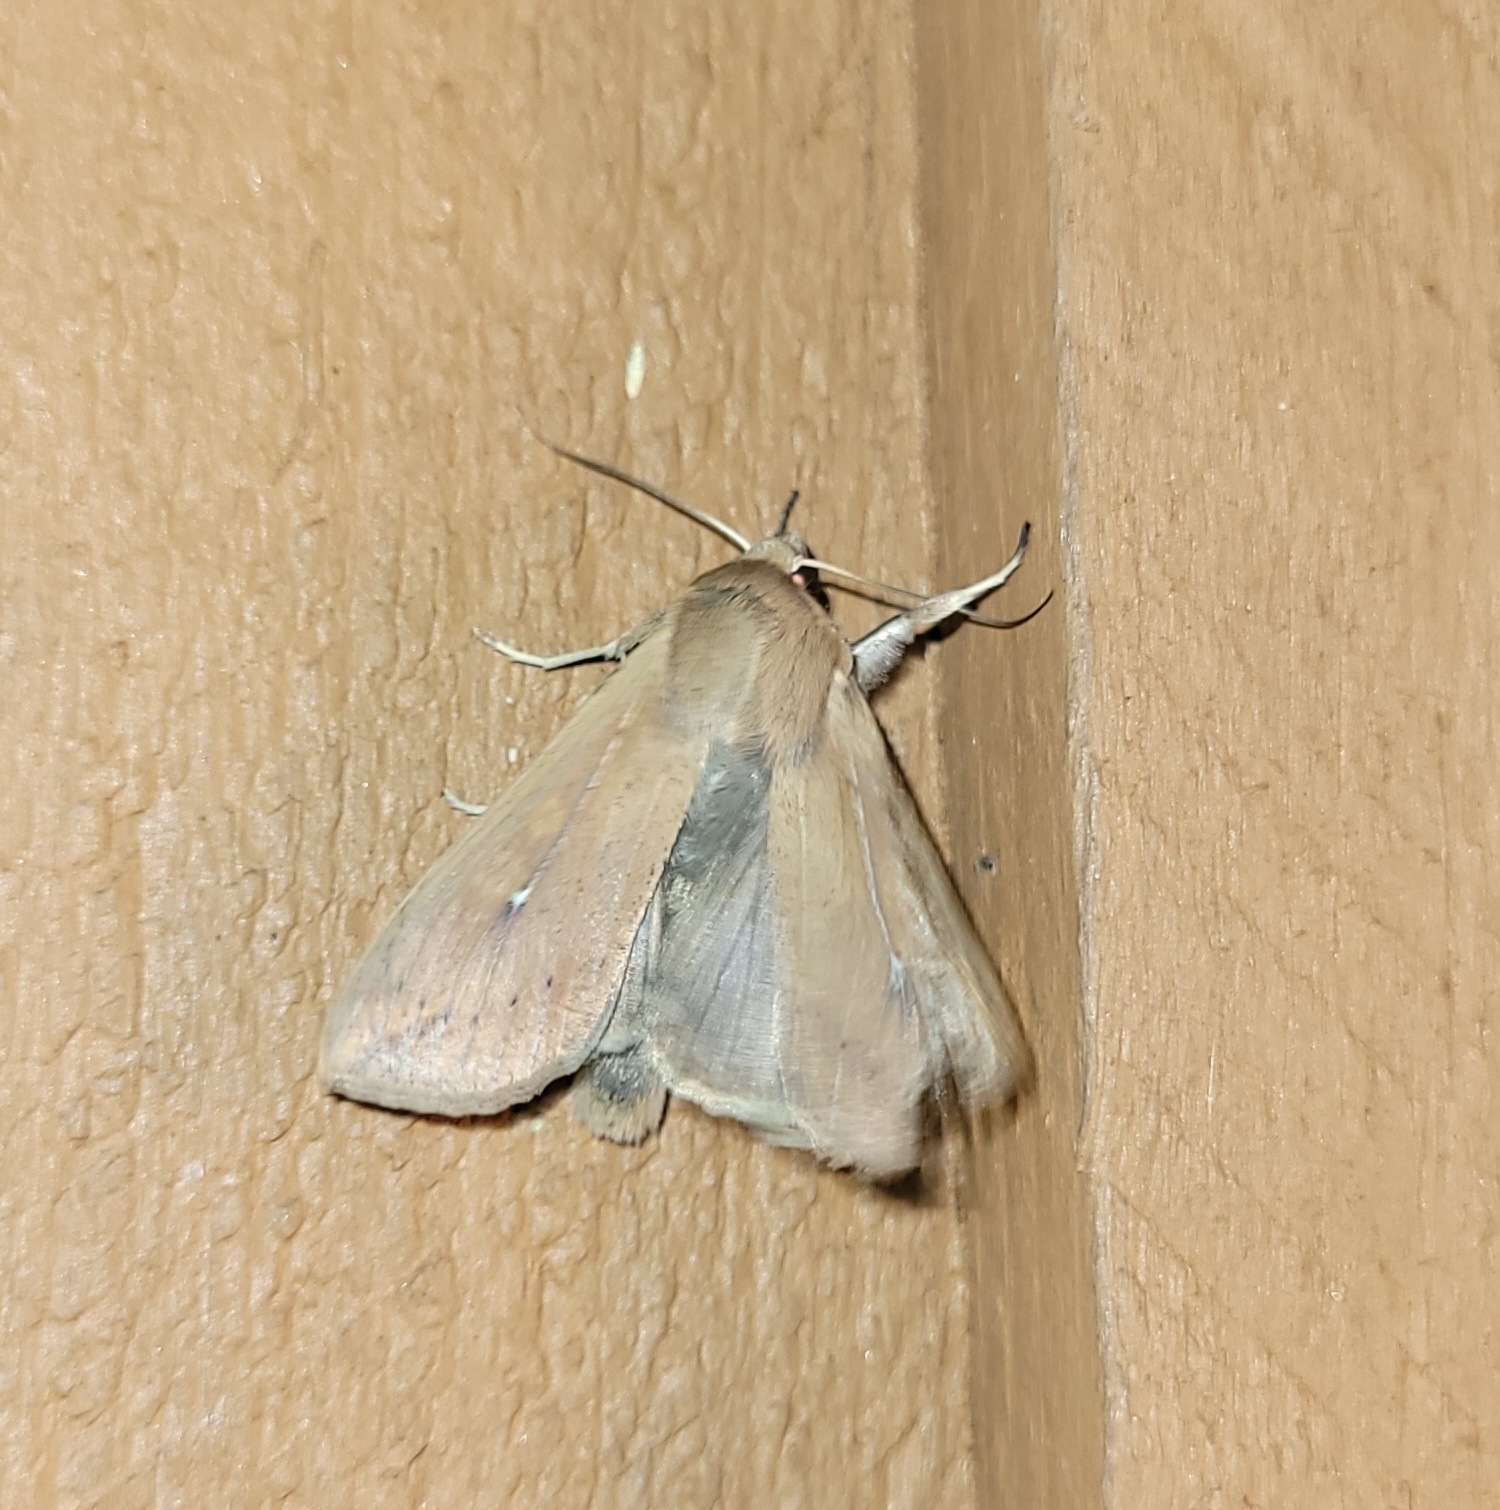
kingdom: Animalia
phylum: Arthropoda
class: Insecta
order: Lepidoptera
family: Noctuidae
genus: Mythimna
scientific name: Mythimna unipuncta
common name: White-speck
